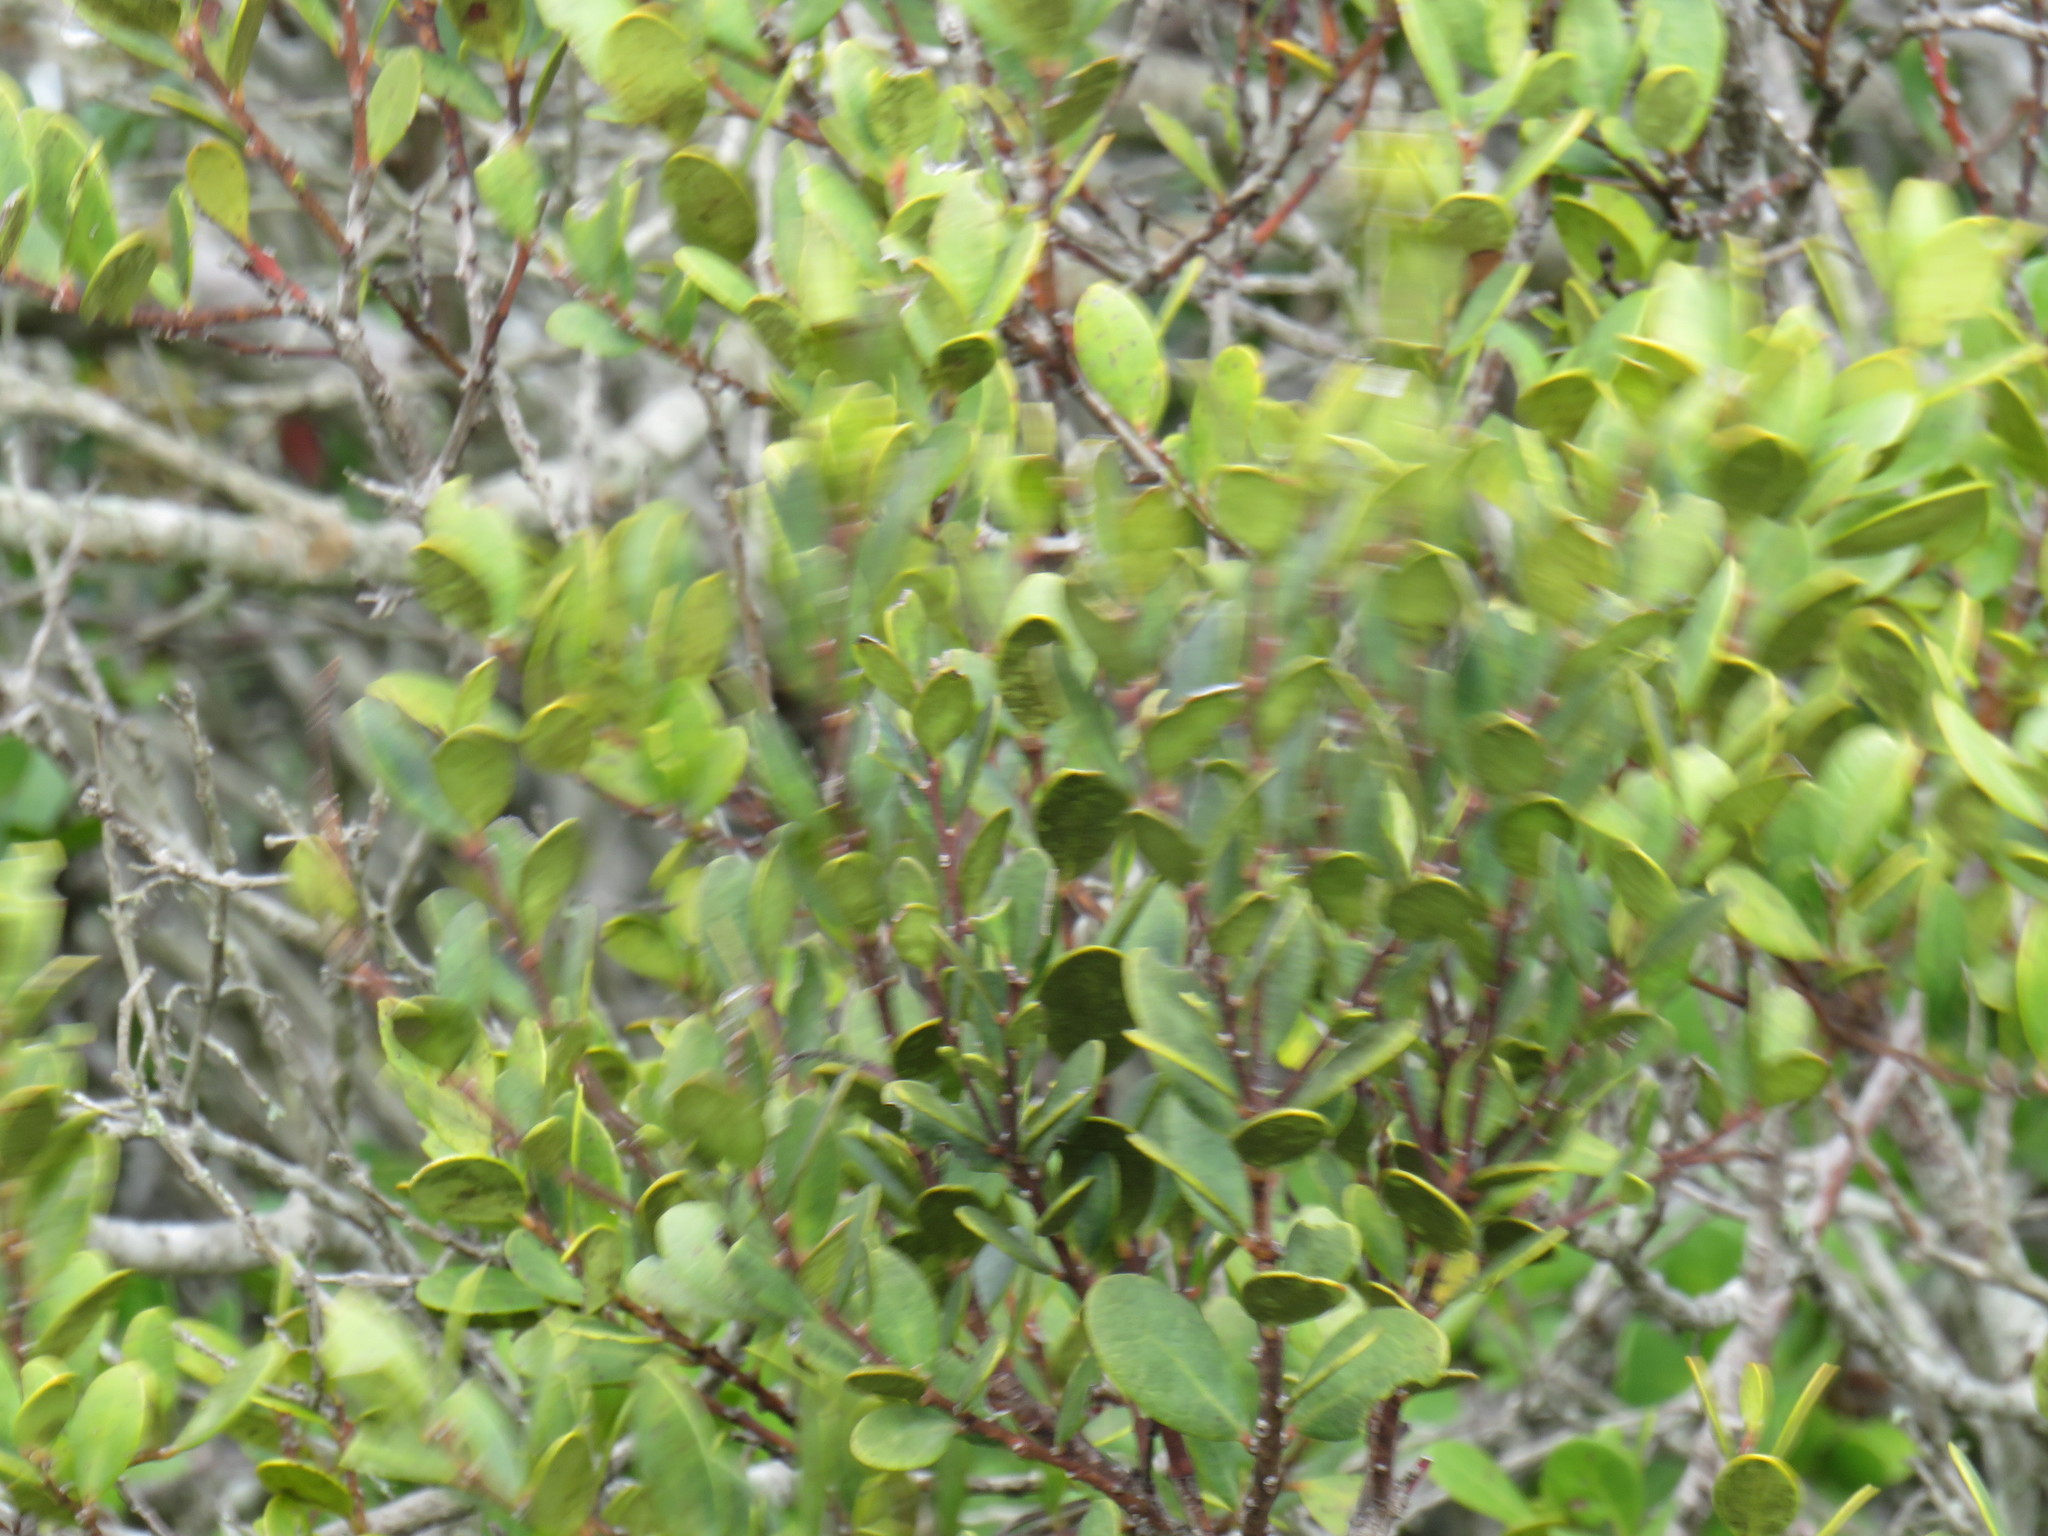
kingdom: Plantae
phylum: Tracheophyta
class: Magnoliopsida
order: Ericales
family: Ebenaceae
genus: Euclea
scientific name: Euclea racemosa
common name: Dune guarri
